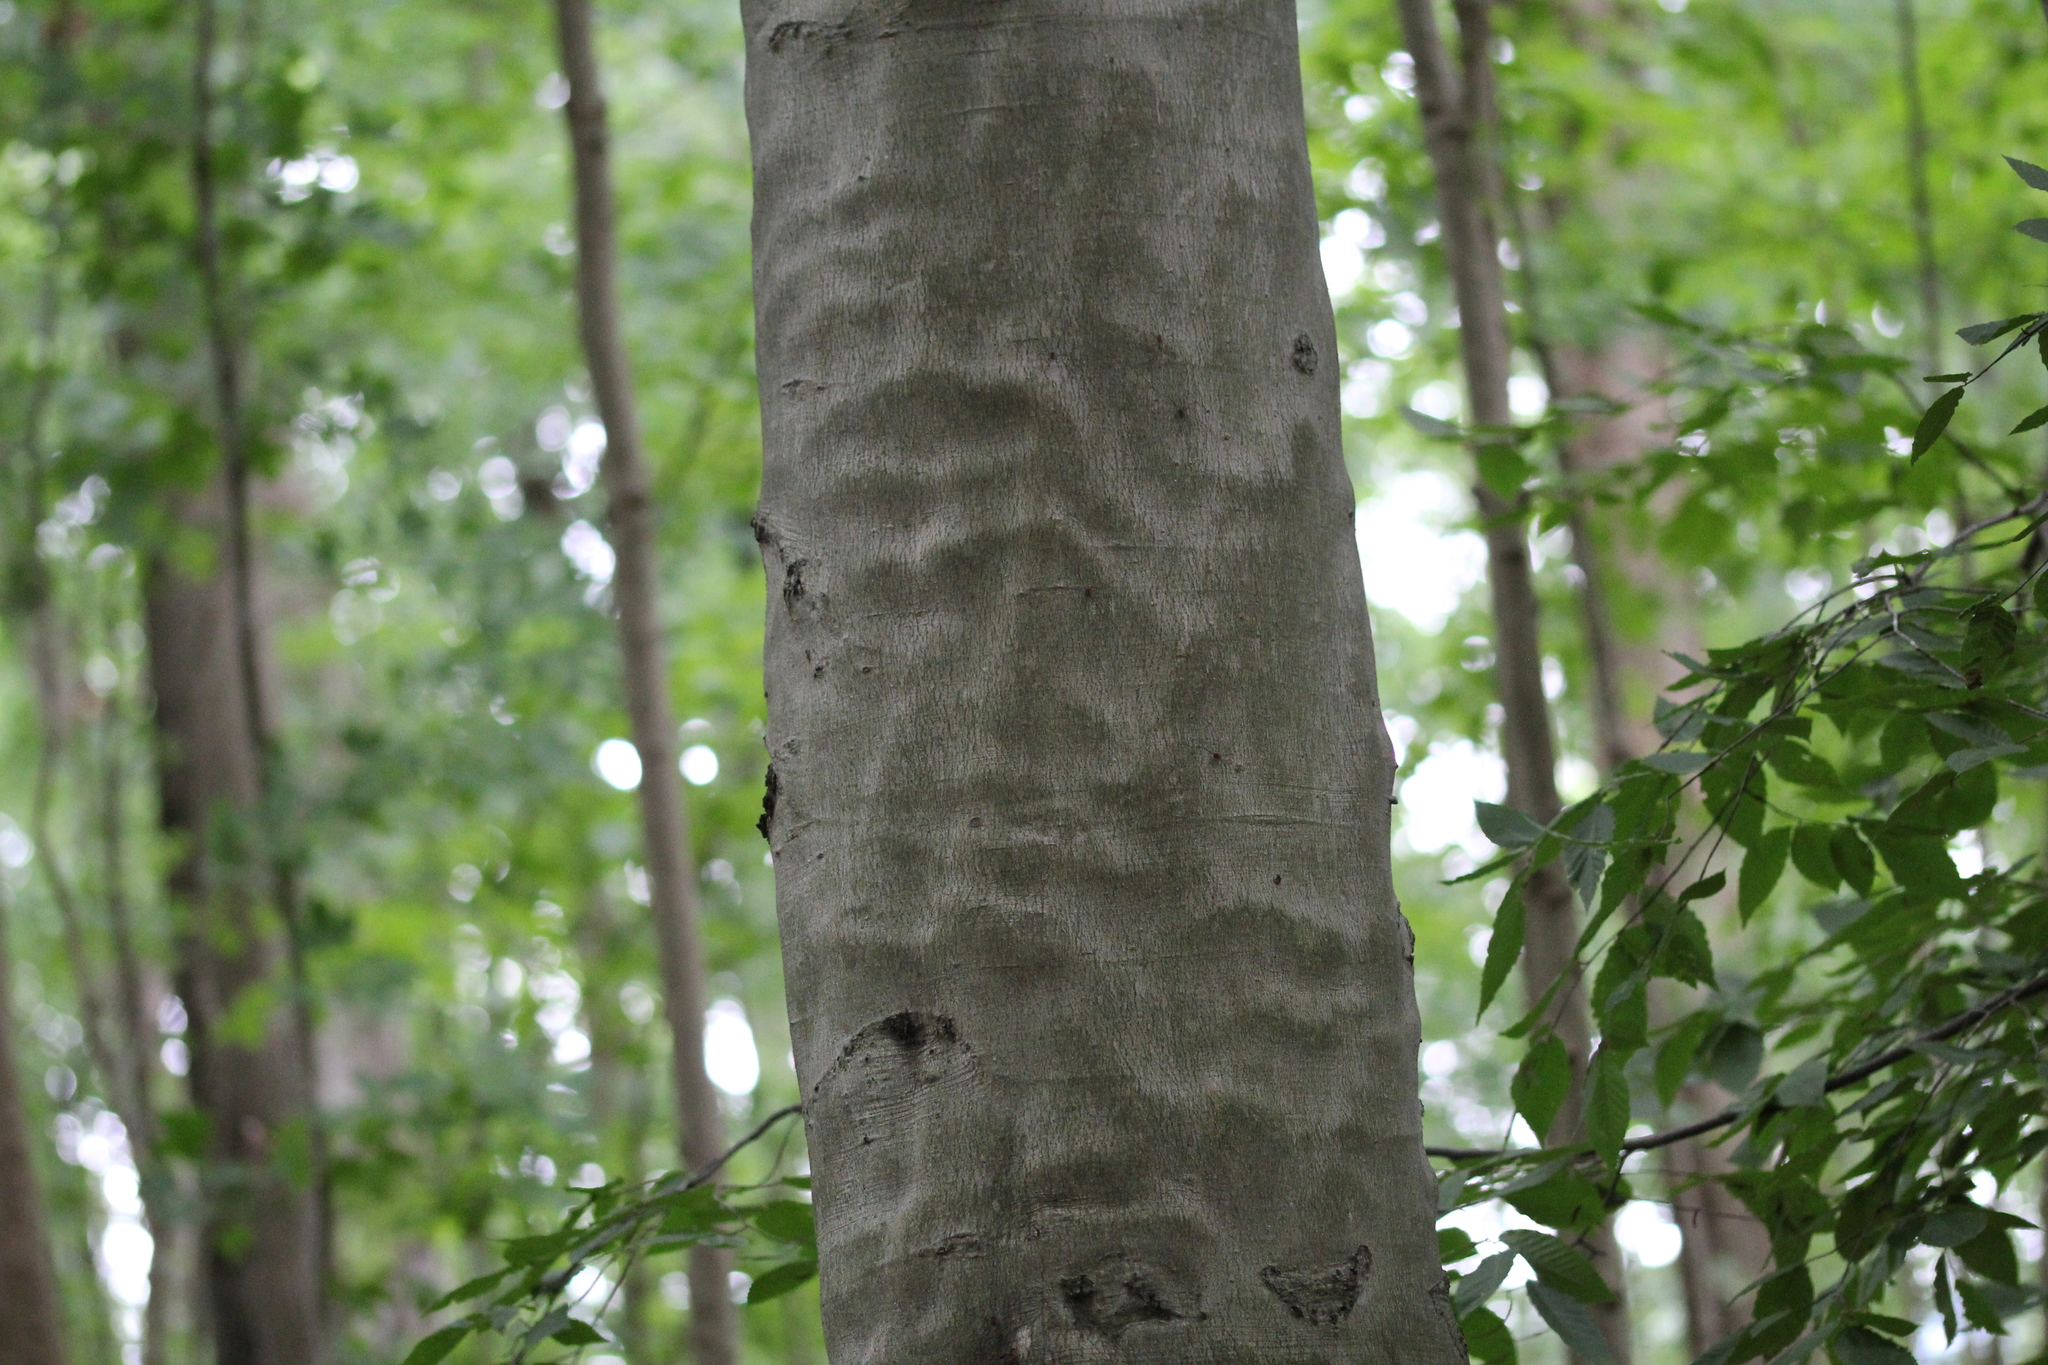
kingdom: Plantae
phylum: Tracheophyta
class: Magnoliopsida
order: Fagales
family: Fagaceae
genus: Fagus
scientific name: Fagus grandifolia
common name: American beech
